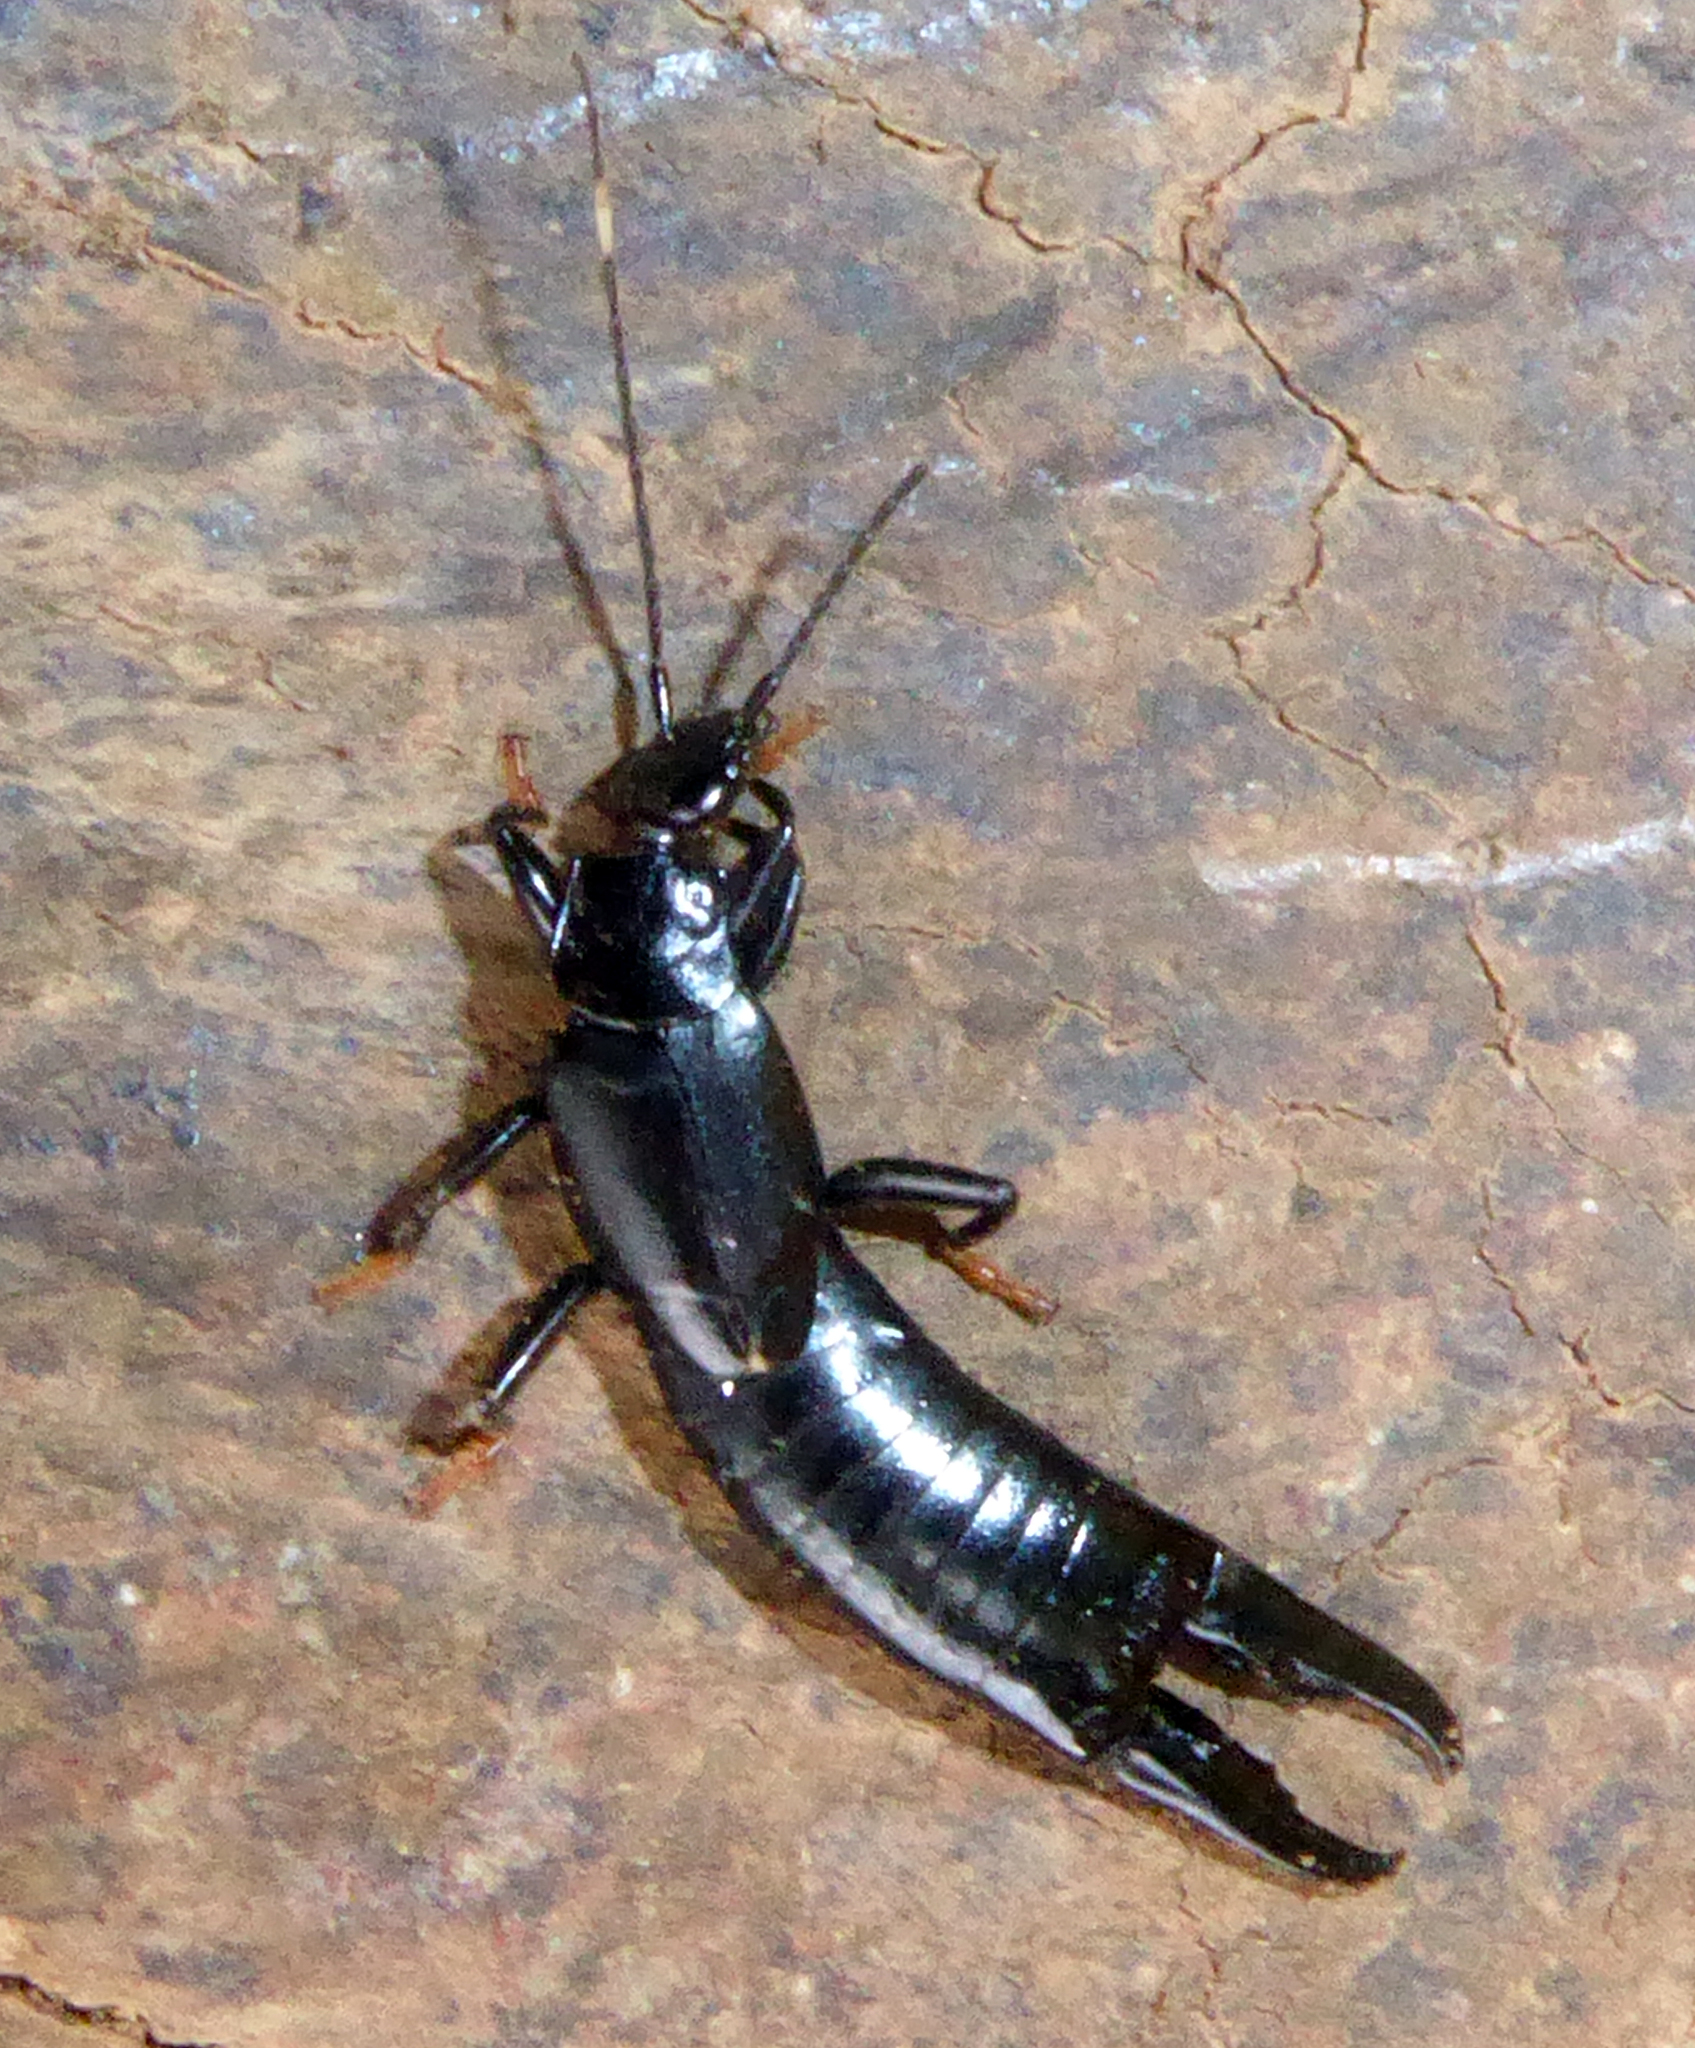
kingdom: Animalia
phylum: Arthropoda
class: Insecta
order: Dermaptera
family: Chelisochidae
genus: Chelisoches
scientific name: Chelisoches morio
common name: Black earwig
